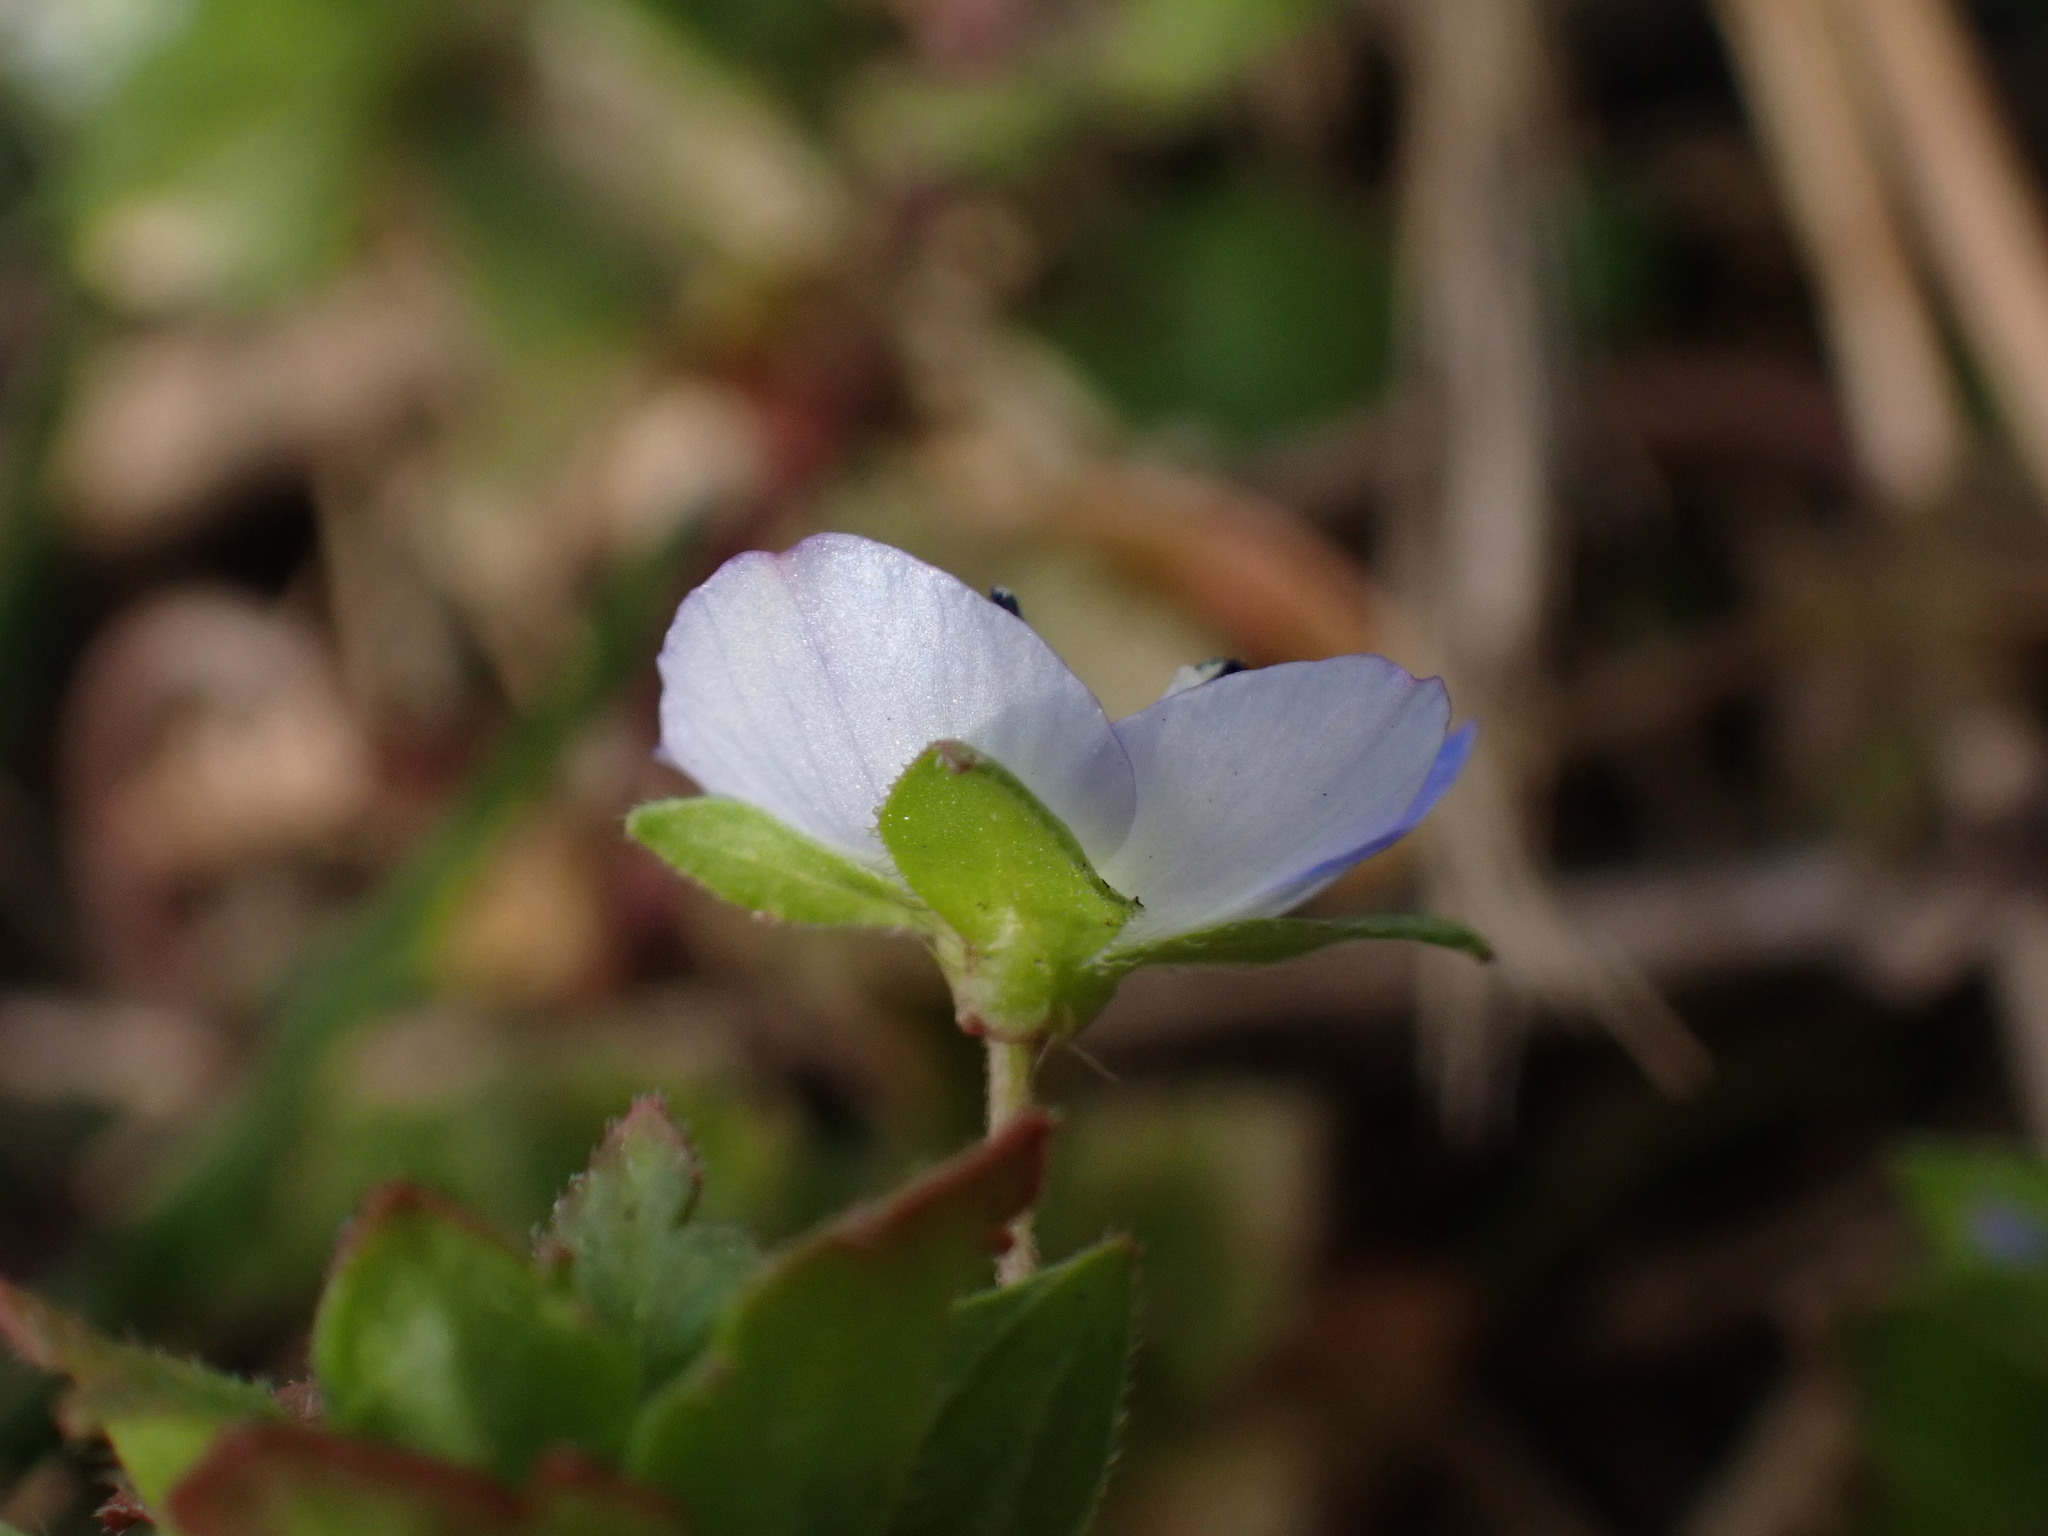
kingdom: Plantae
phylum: Tracheophyta
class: Magnoliopsida
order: Lamiales
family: Plantaginaceae
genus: Veronica
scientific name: Veronica persica
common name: Common field-speedwell
